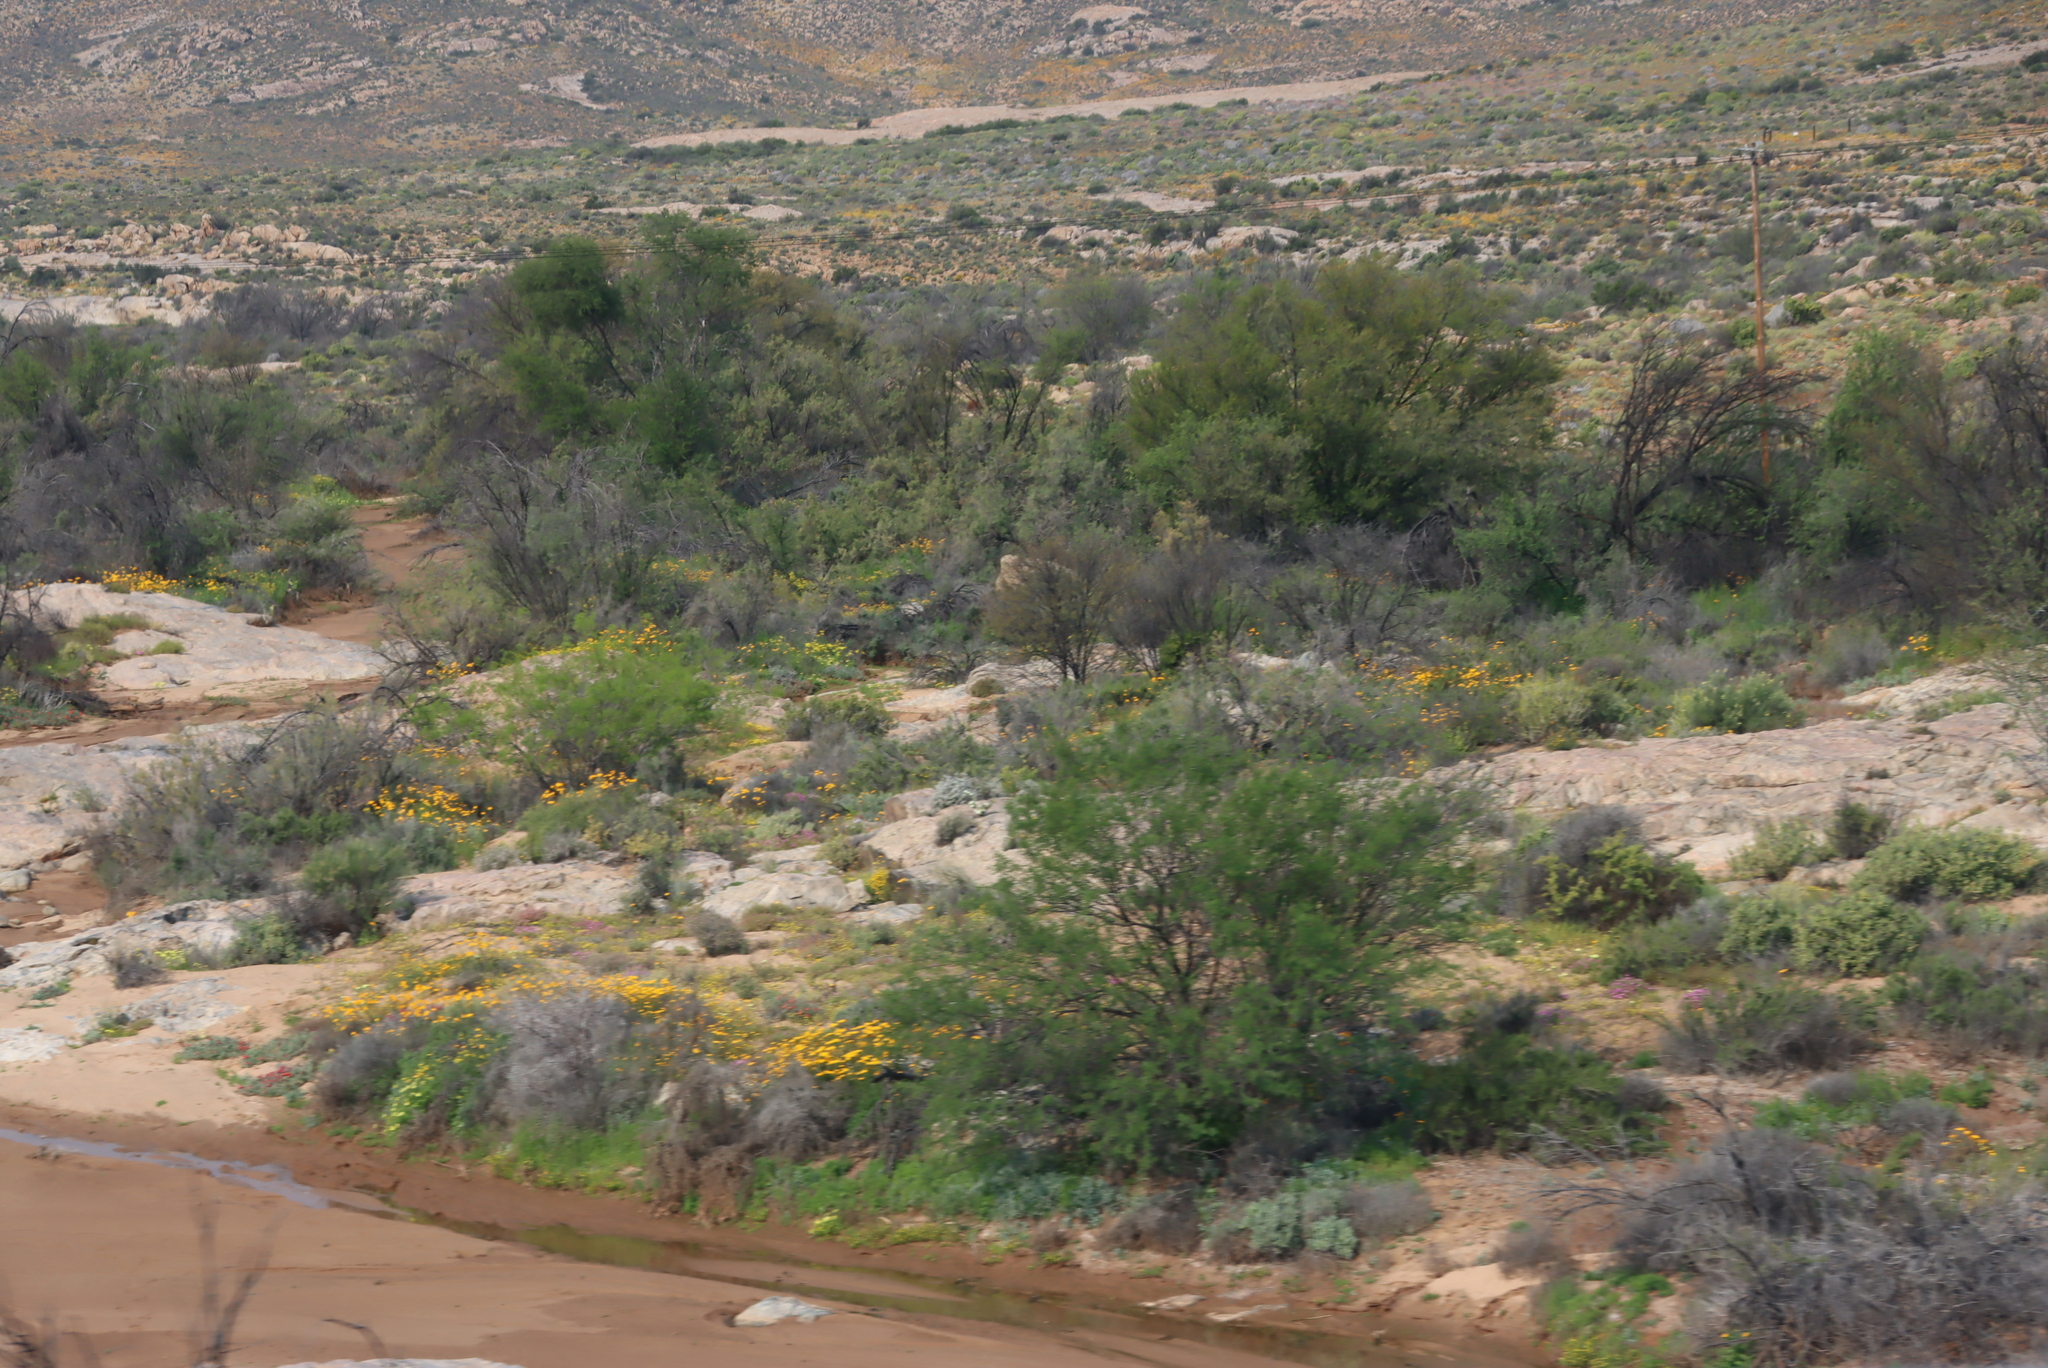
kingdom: Plantae
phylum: Tracheophyta
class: Magnoliopsida
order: Fabales
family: Fabaceae
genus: Vachellia
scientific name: Vachellia karroo
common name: Sweet thorn
